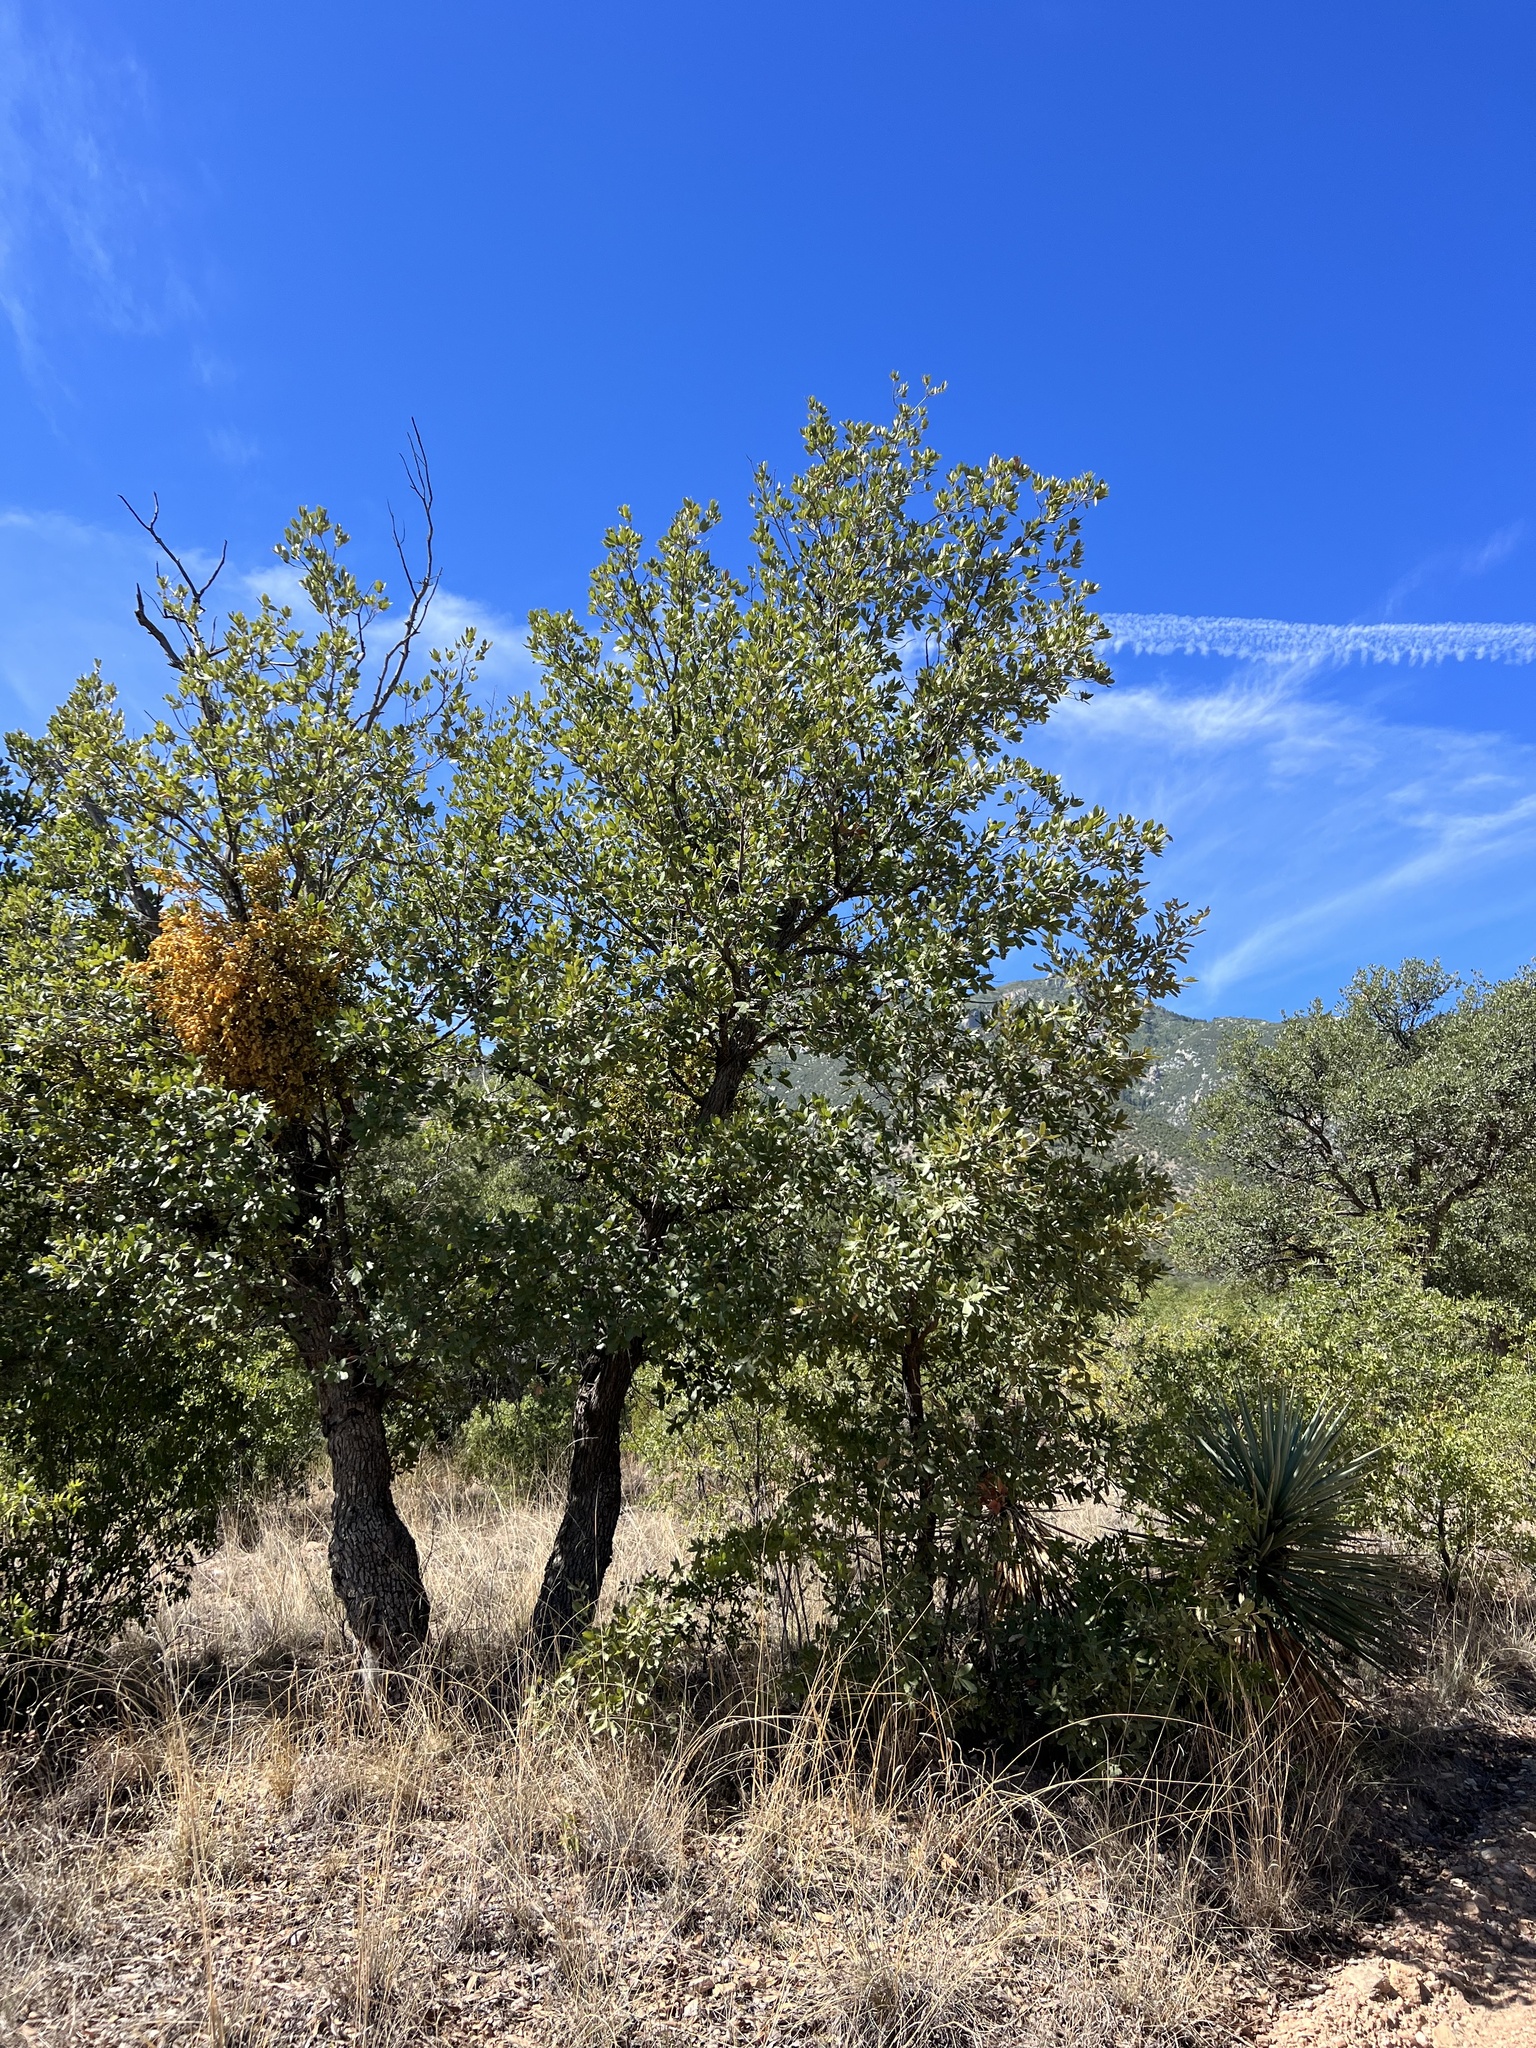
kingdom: Plantae
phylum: Tracheophyta
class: Magnoliopsida
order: Fagales
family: Fagaceae
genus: Quercus
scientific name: Quercus emoryi
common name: Emory oak
